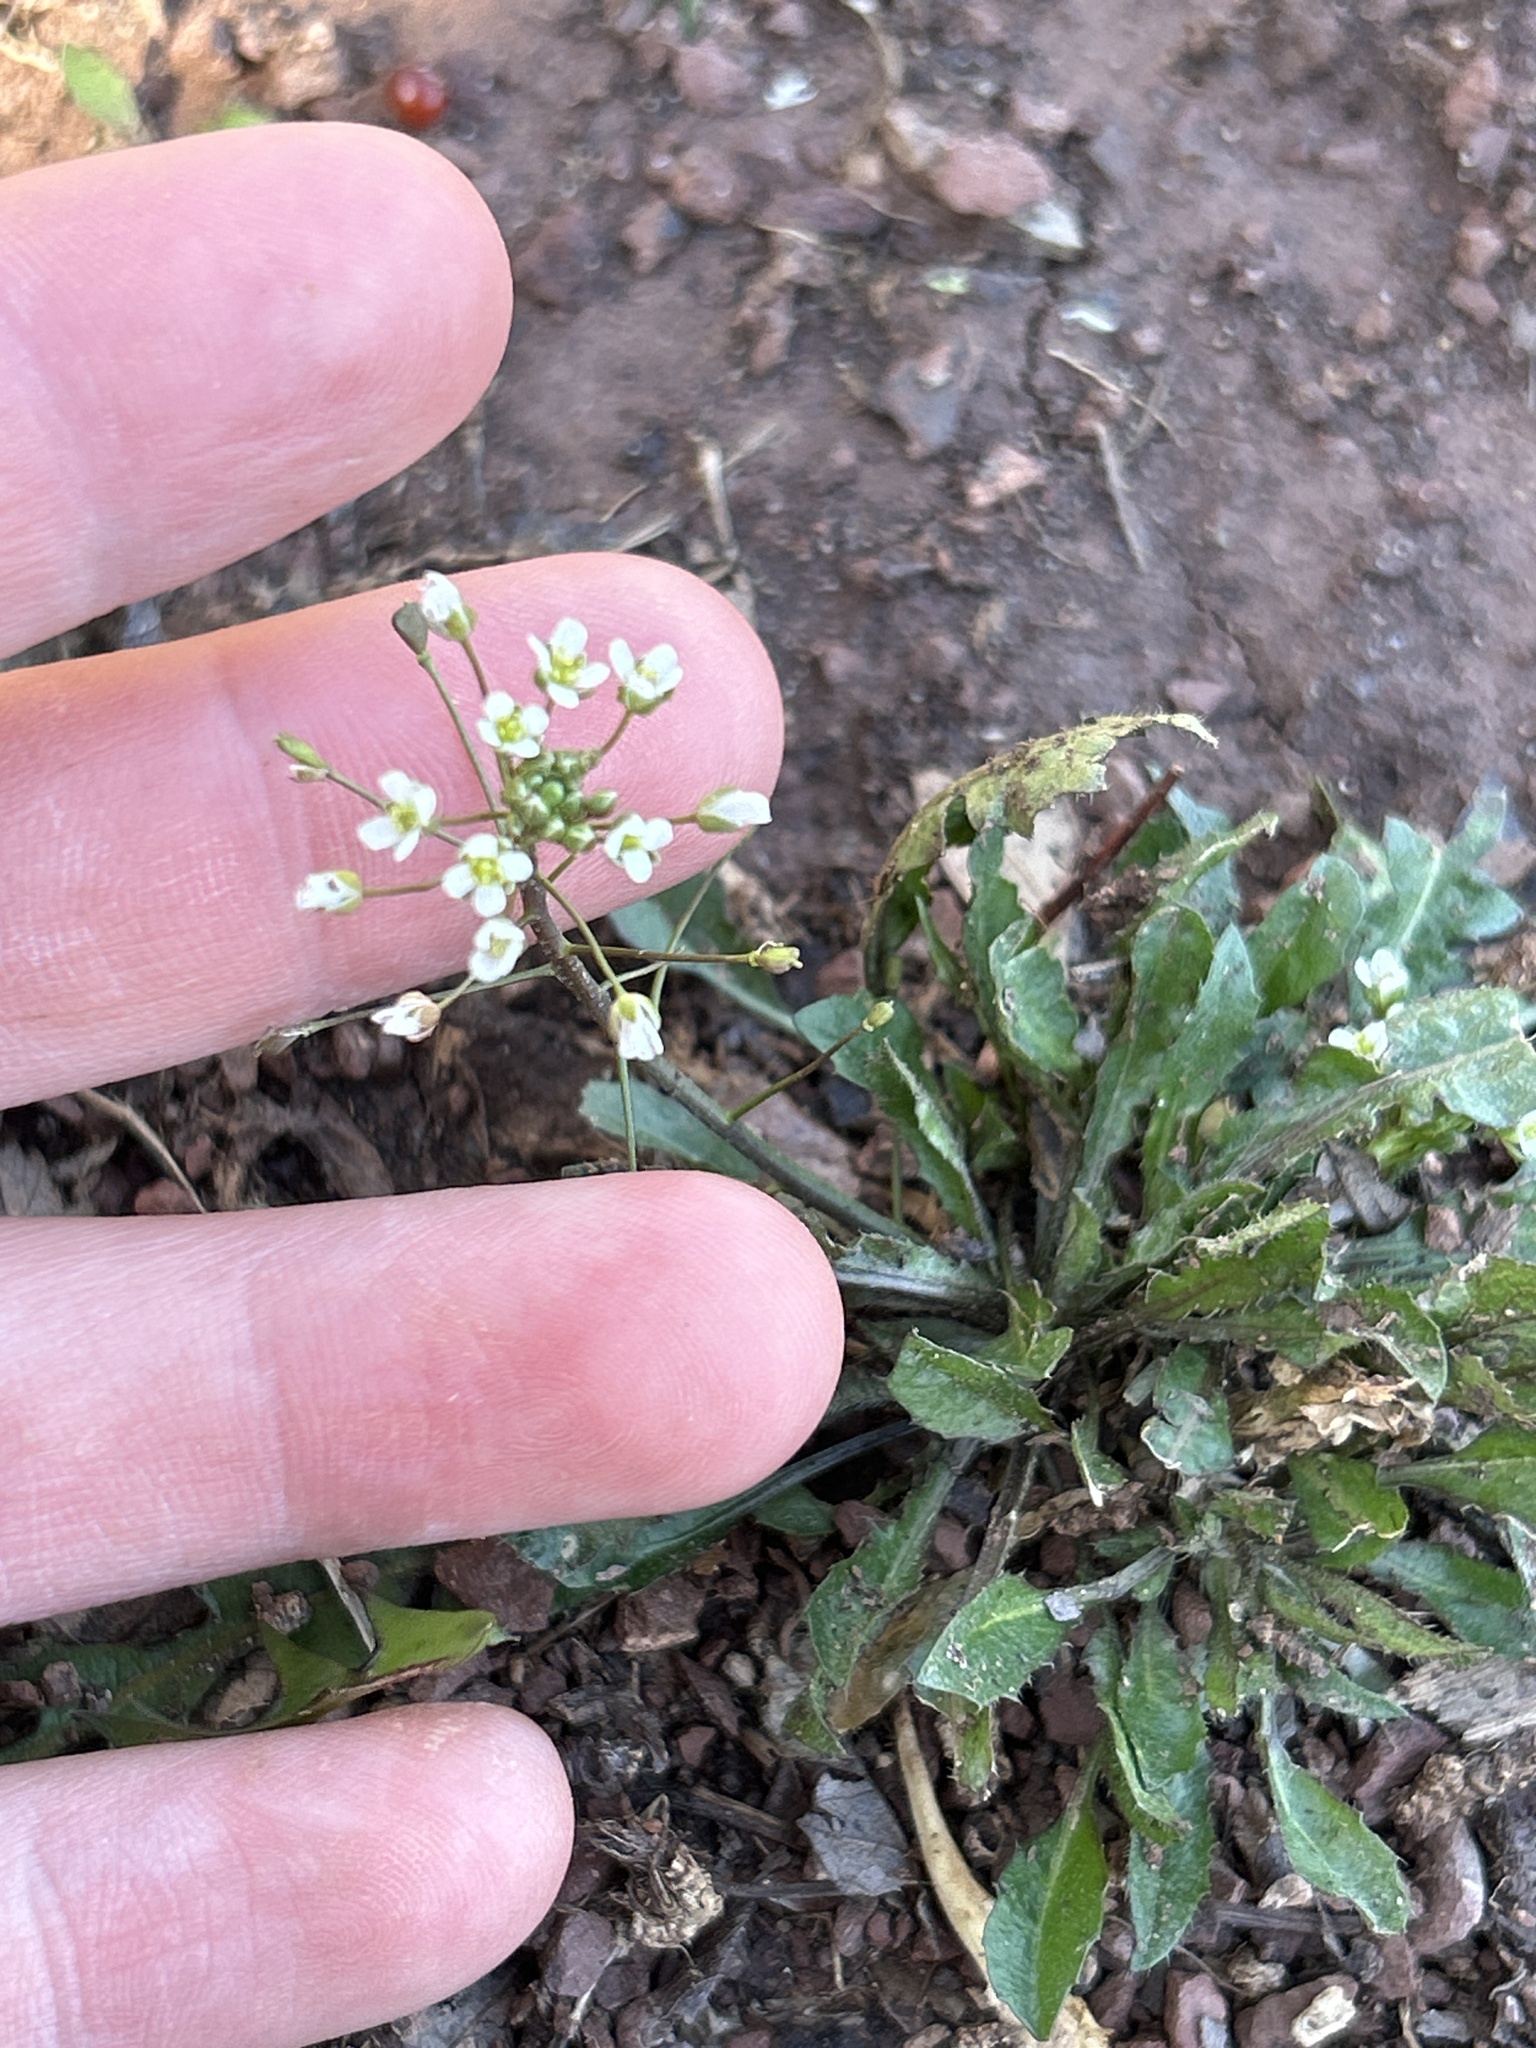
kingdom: Plantae
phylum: Tracheophyta
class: Magnoliopsida
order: Brassicales
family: Brassicaceae
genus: Capsella
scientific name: Capsella bursa-pastoris
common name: Shepherd's purse
